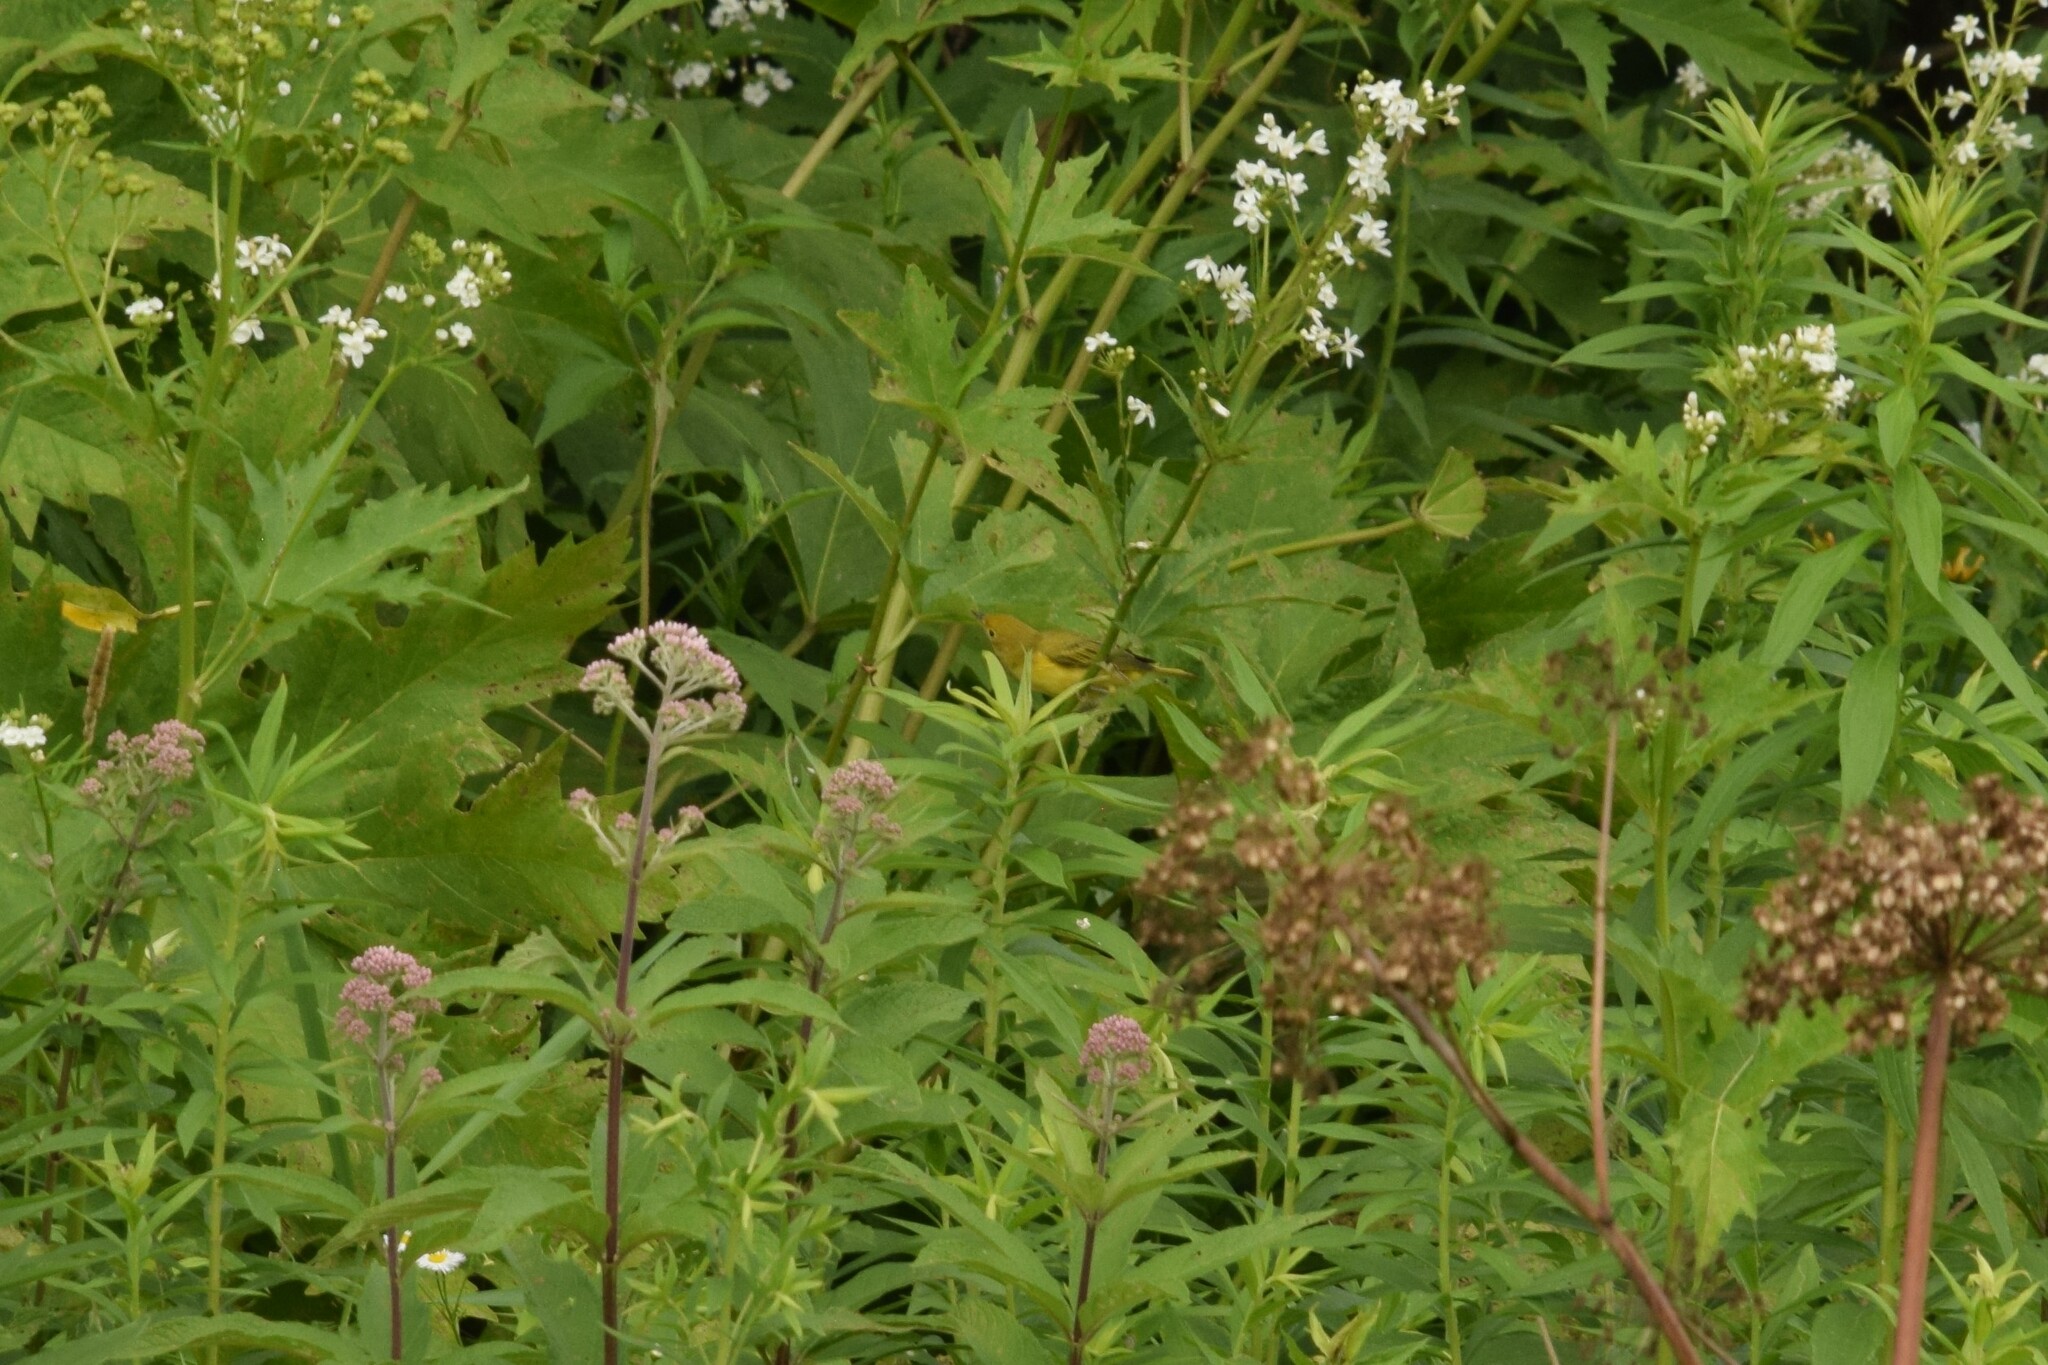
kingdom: Animalia
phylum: Chordata
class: Aves
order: Passeriformes
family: Parulidae
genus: Setophaga
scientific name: Setophaga petechia
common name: Yellow warbler
